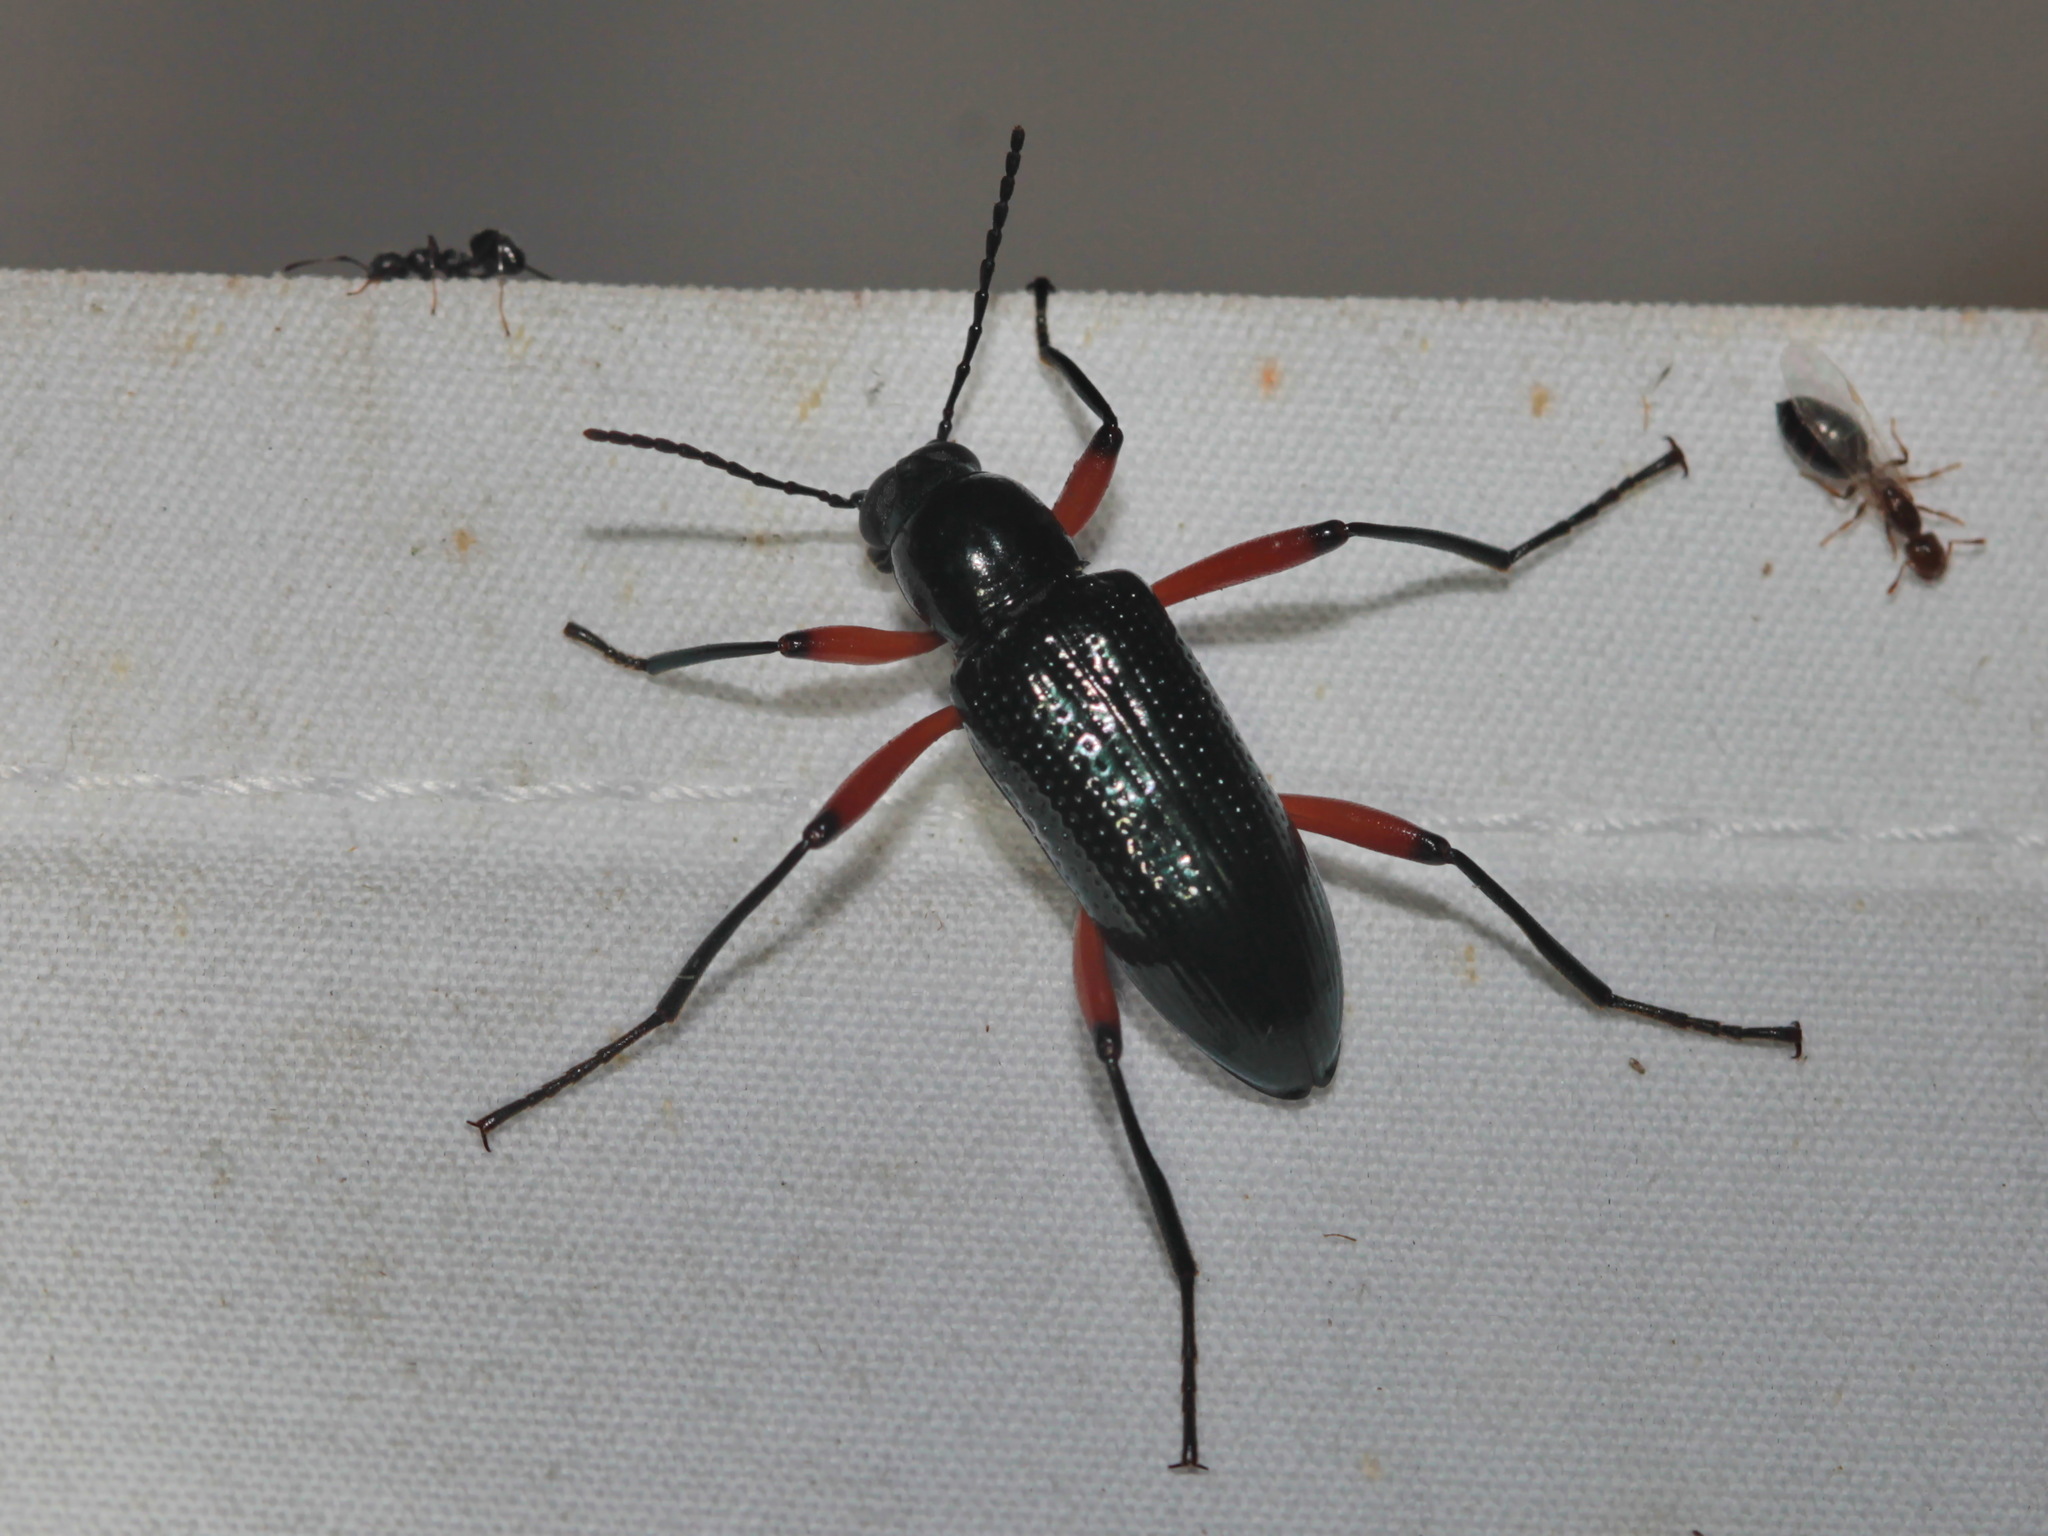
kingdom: Animalia
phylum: Arthropoda
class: Insecta
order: Coleoptera
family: Tenebrionidae
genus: Strongylium
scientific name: Strongylium erythrocephalum
